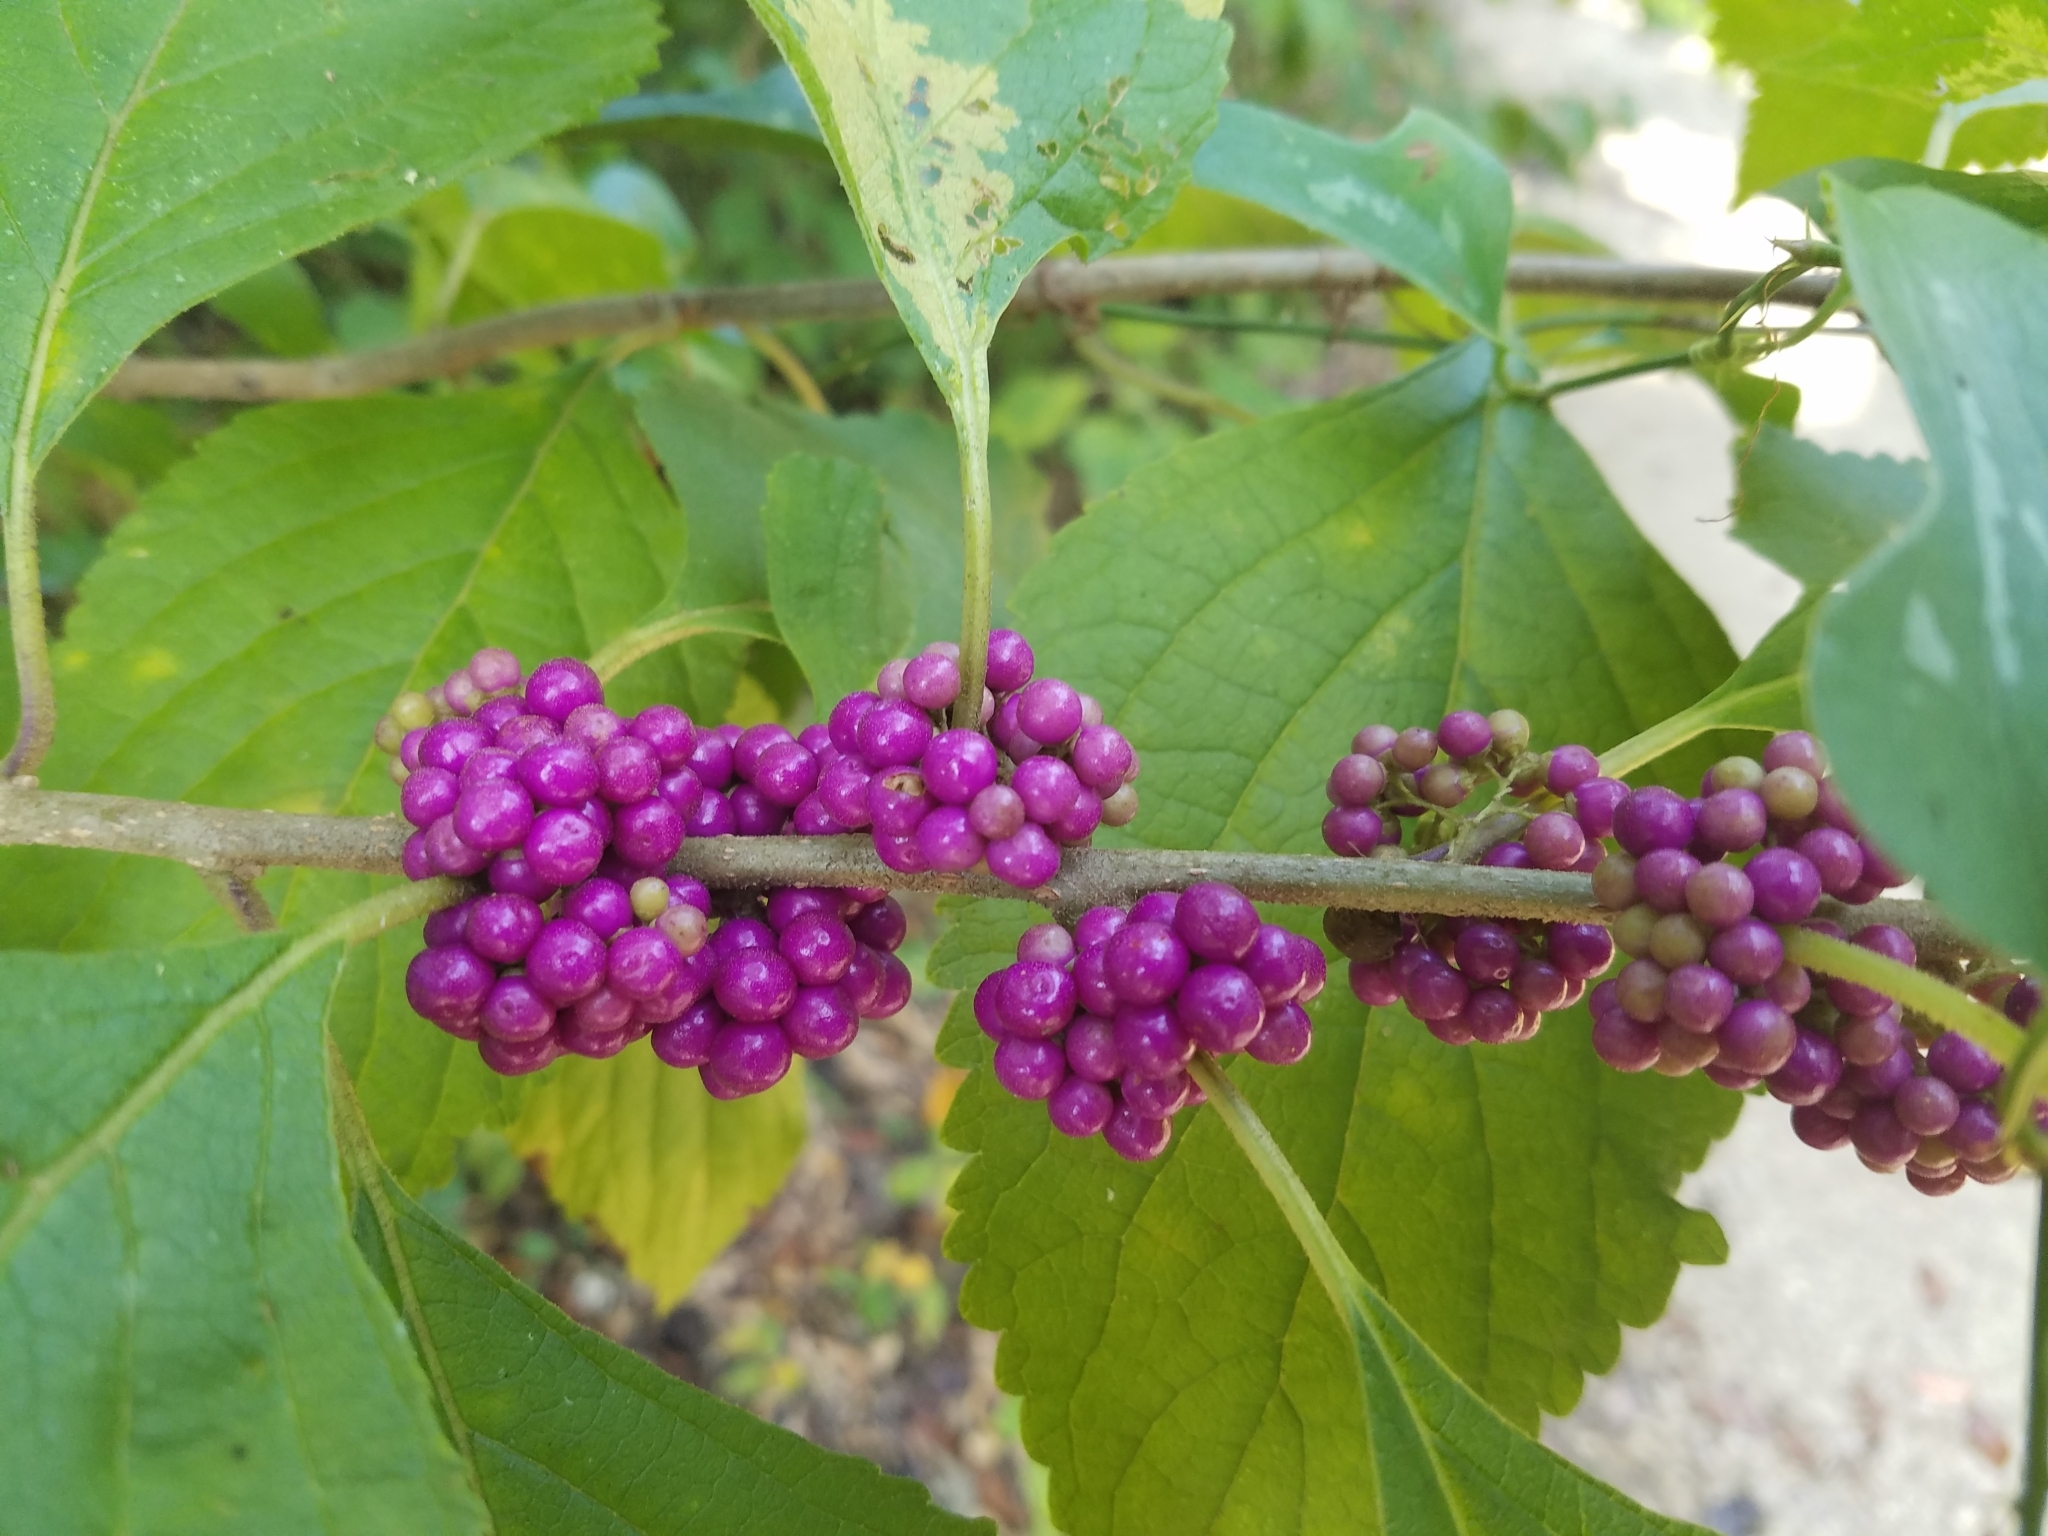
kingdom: Plantae
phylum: Tracheophyta
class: Magnoliopsida
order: Lamiales
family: Lamiaceae
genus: Callicarpa
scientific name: Callicarpa americana
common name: American beautyberry
